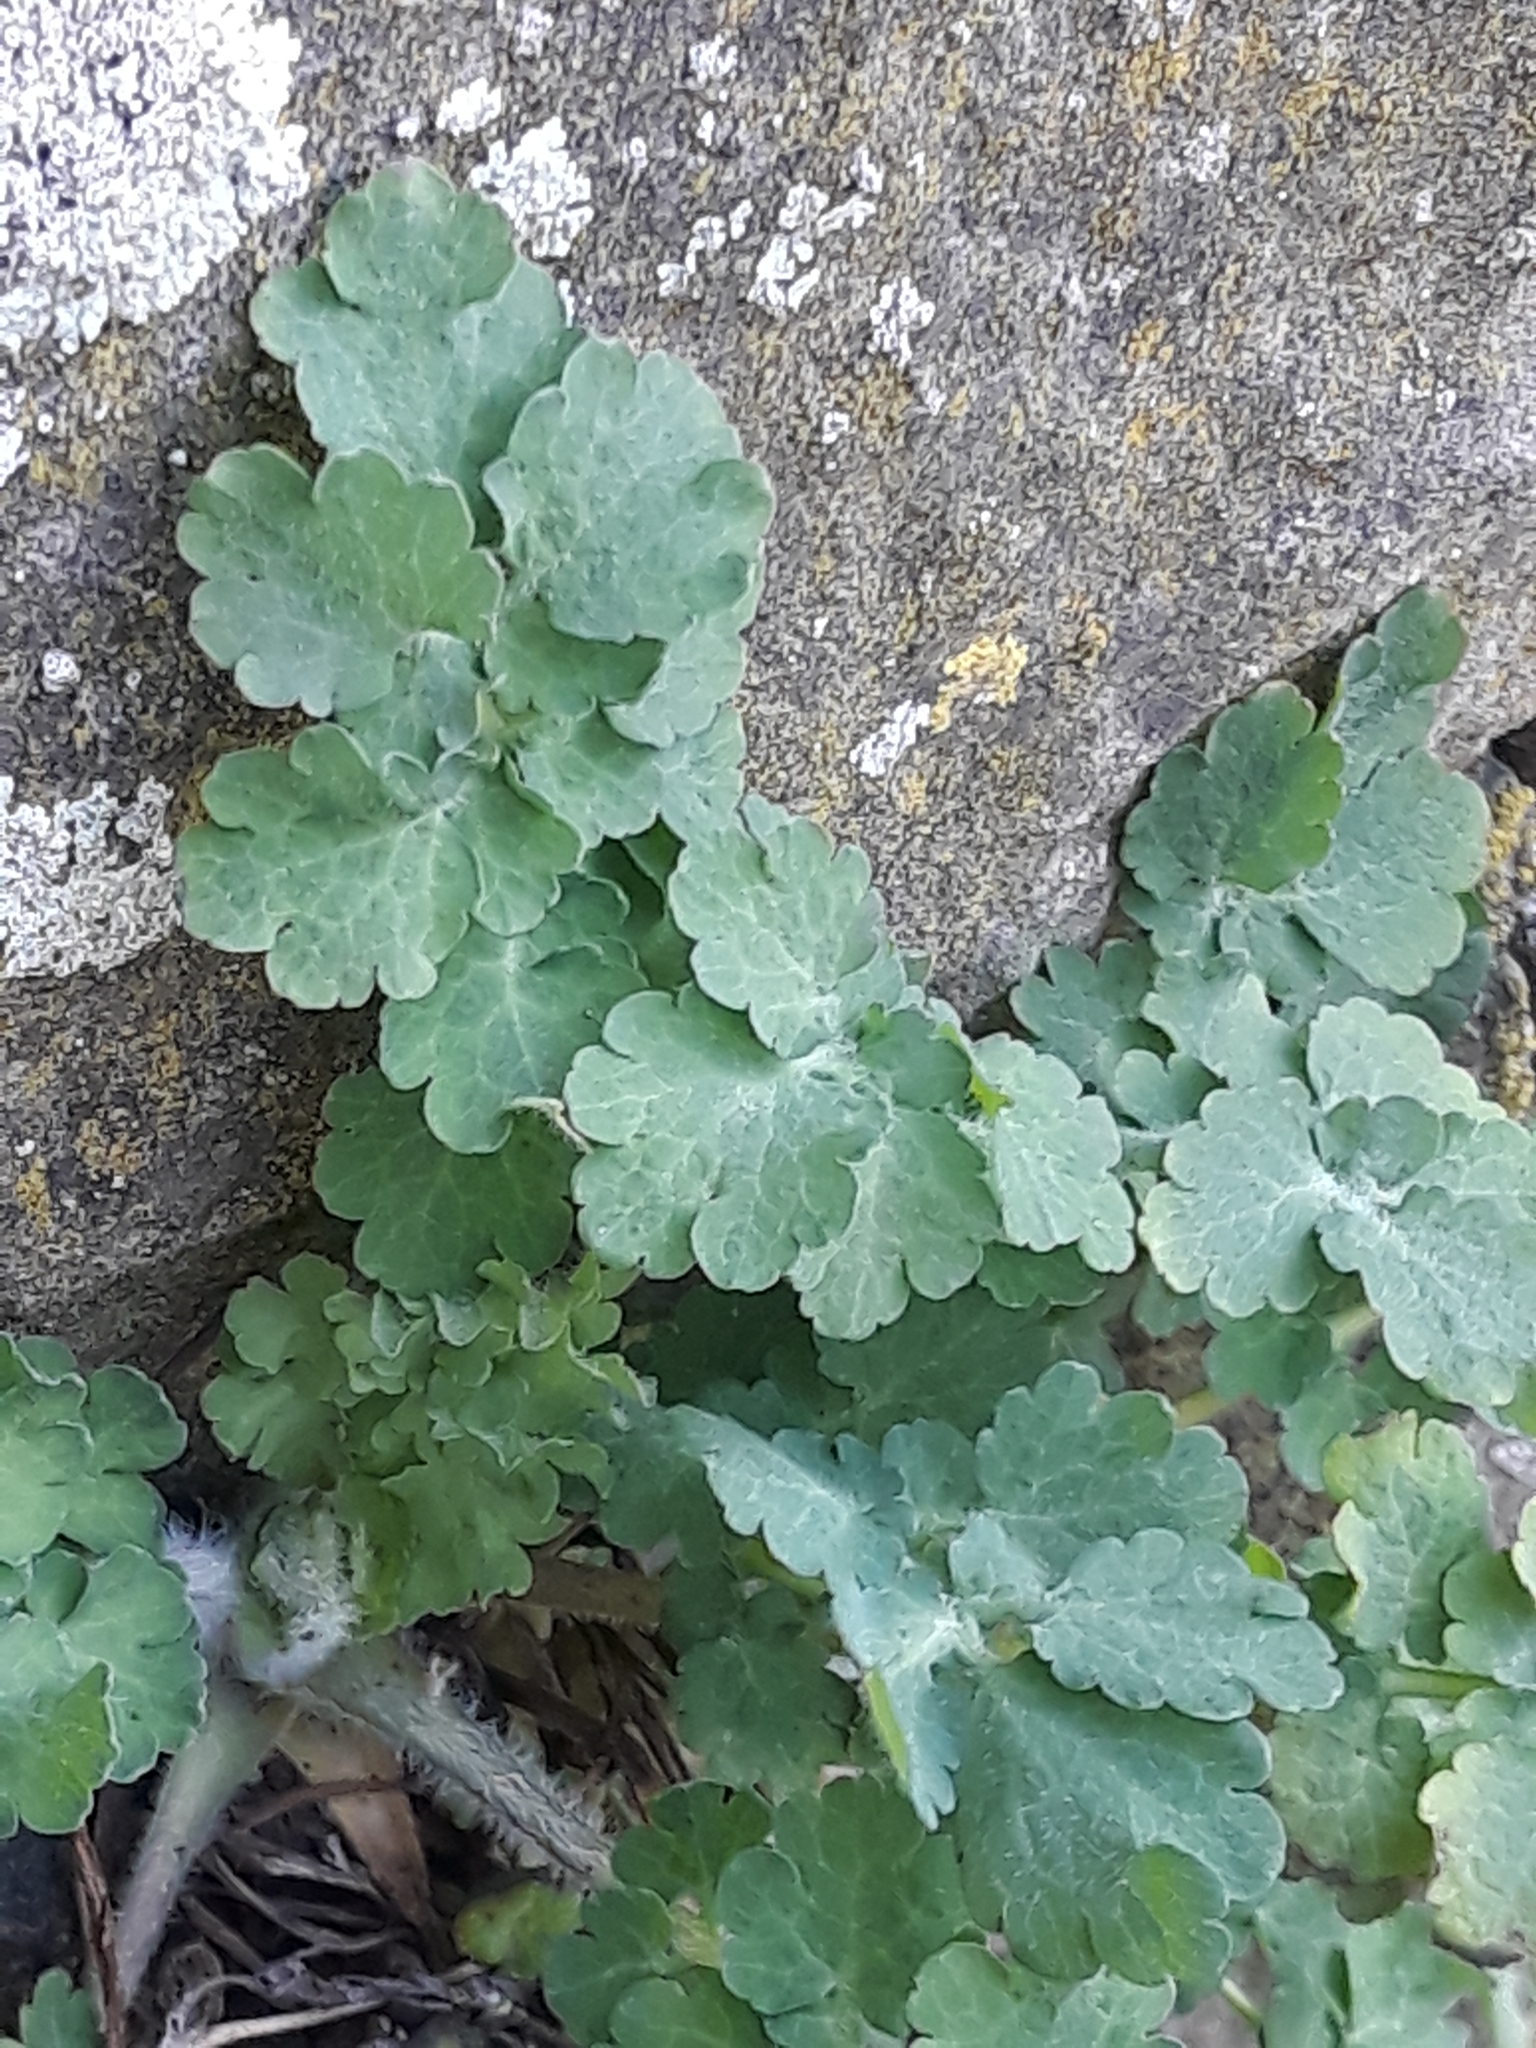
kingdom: Plantae
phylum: Tracheophyta
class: Magnoliopsida
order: Ranunculales
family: Papaveraceae
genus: Chelidonium
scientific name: Chelidonium majus
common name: Greater celandine
